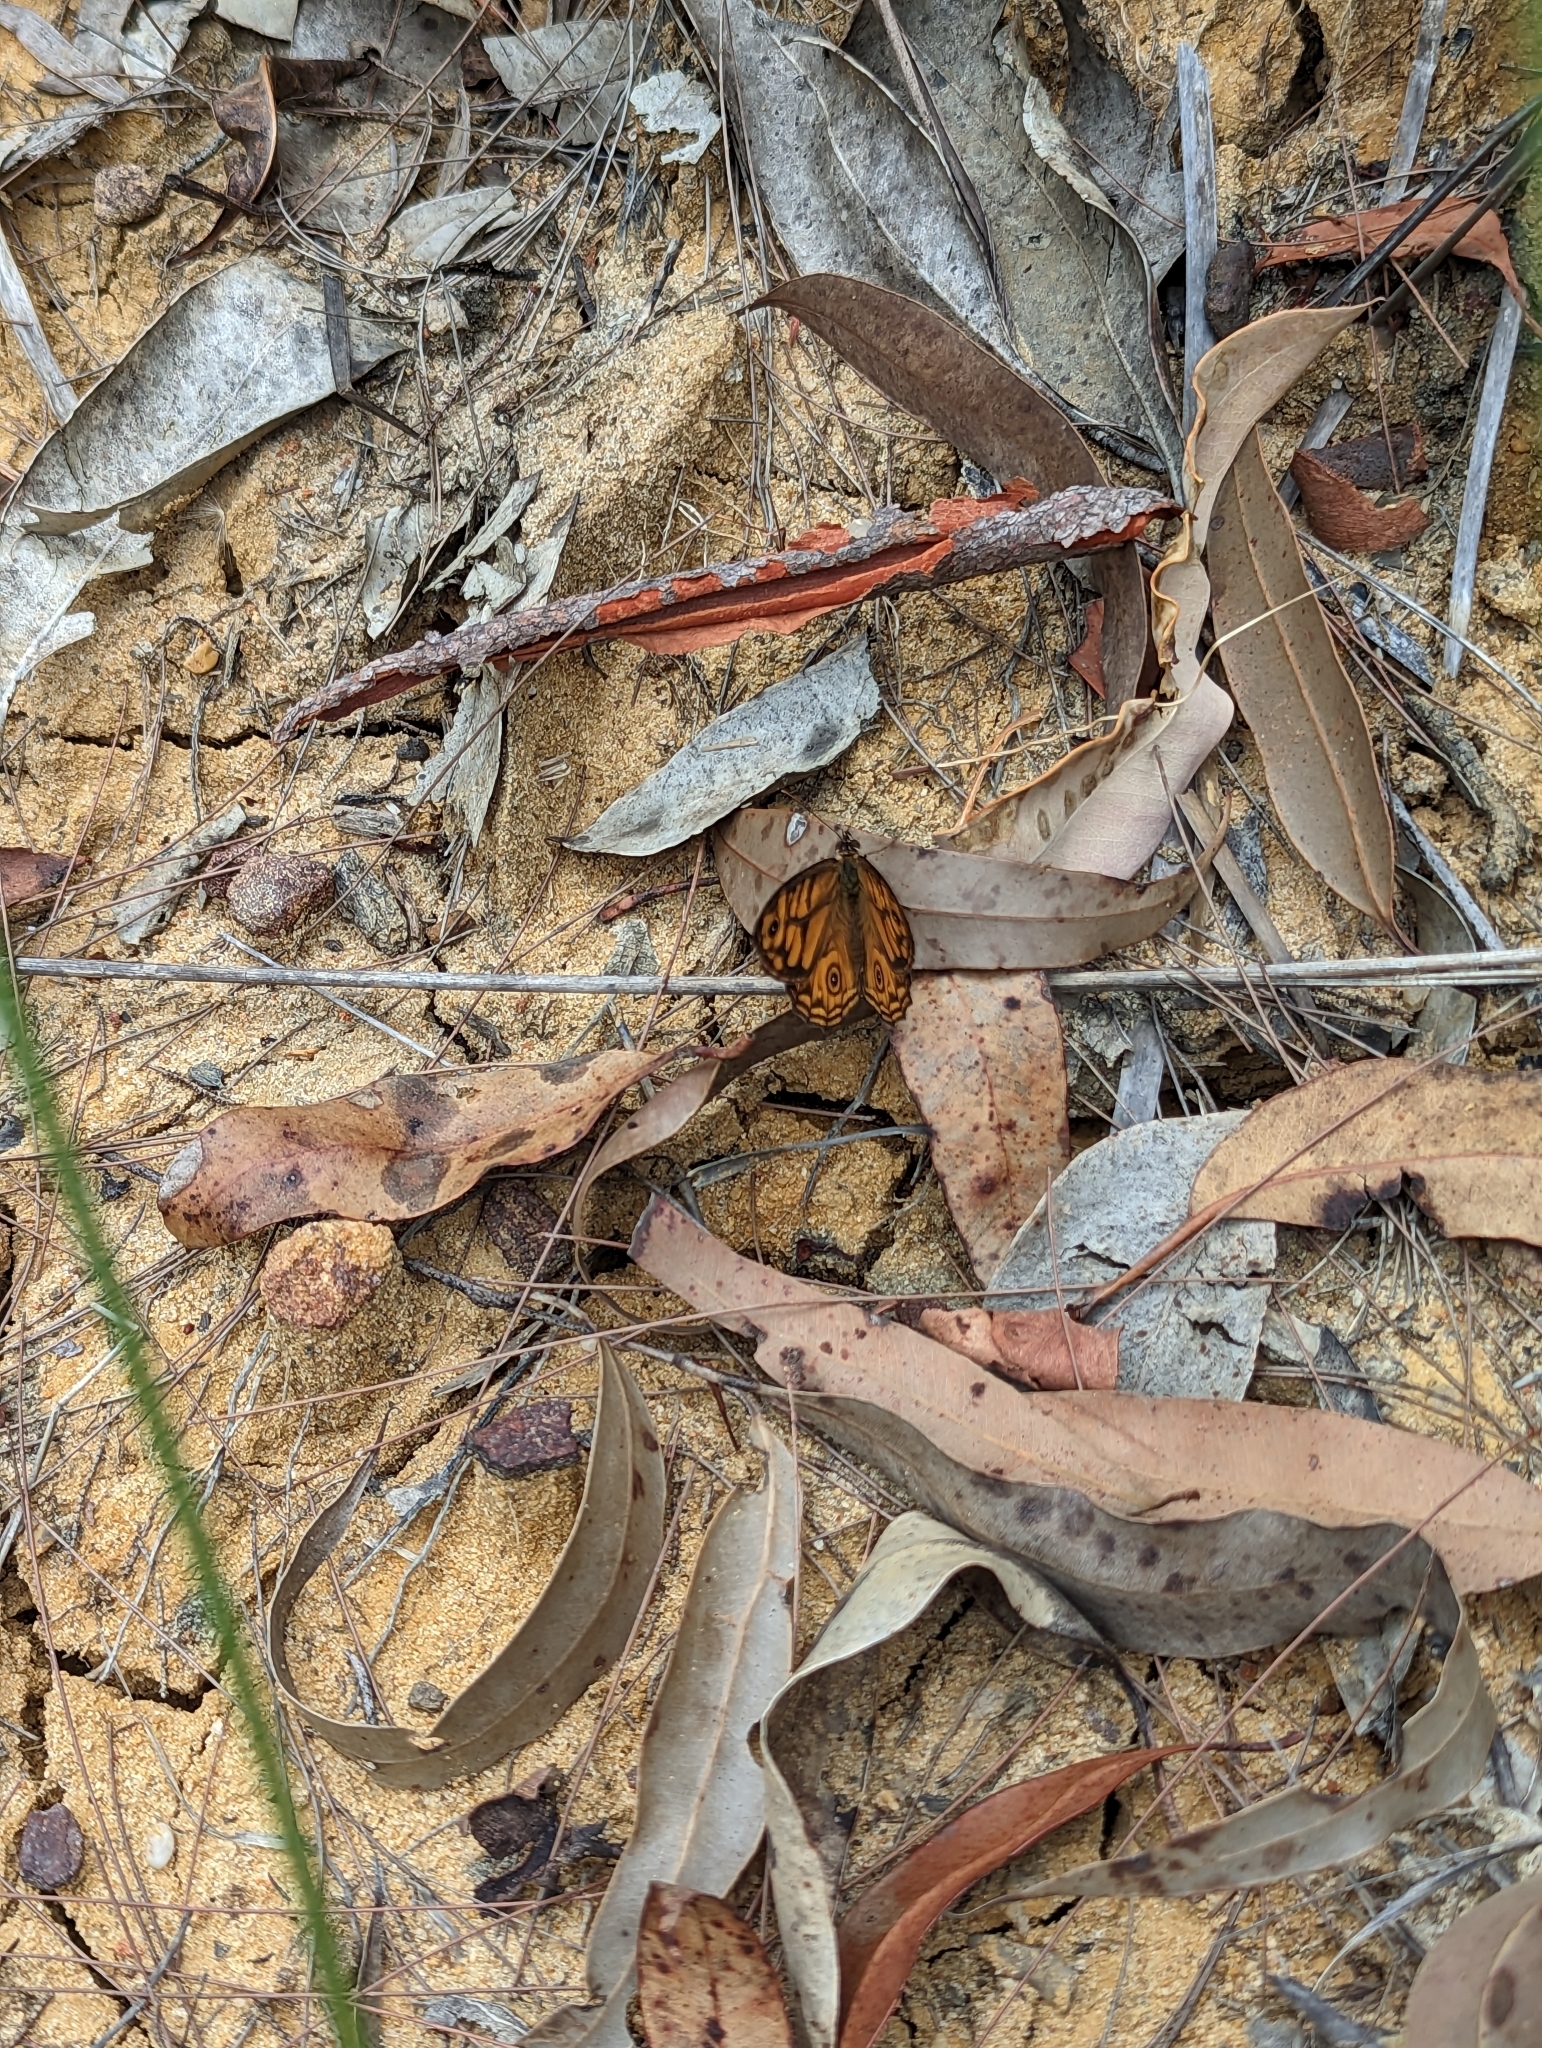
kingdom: Animalia
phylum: Arthropoda
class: Insecta
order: Lepidoptera
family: Nymphalidae
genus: Geitoneura
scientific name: Geitoneura acantha
